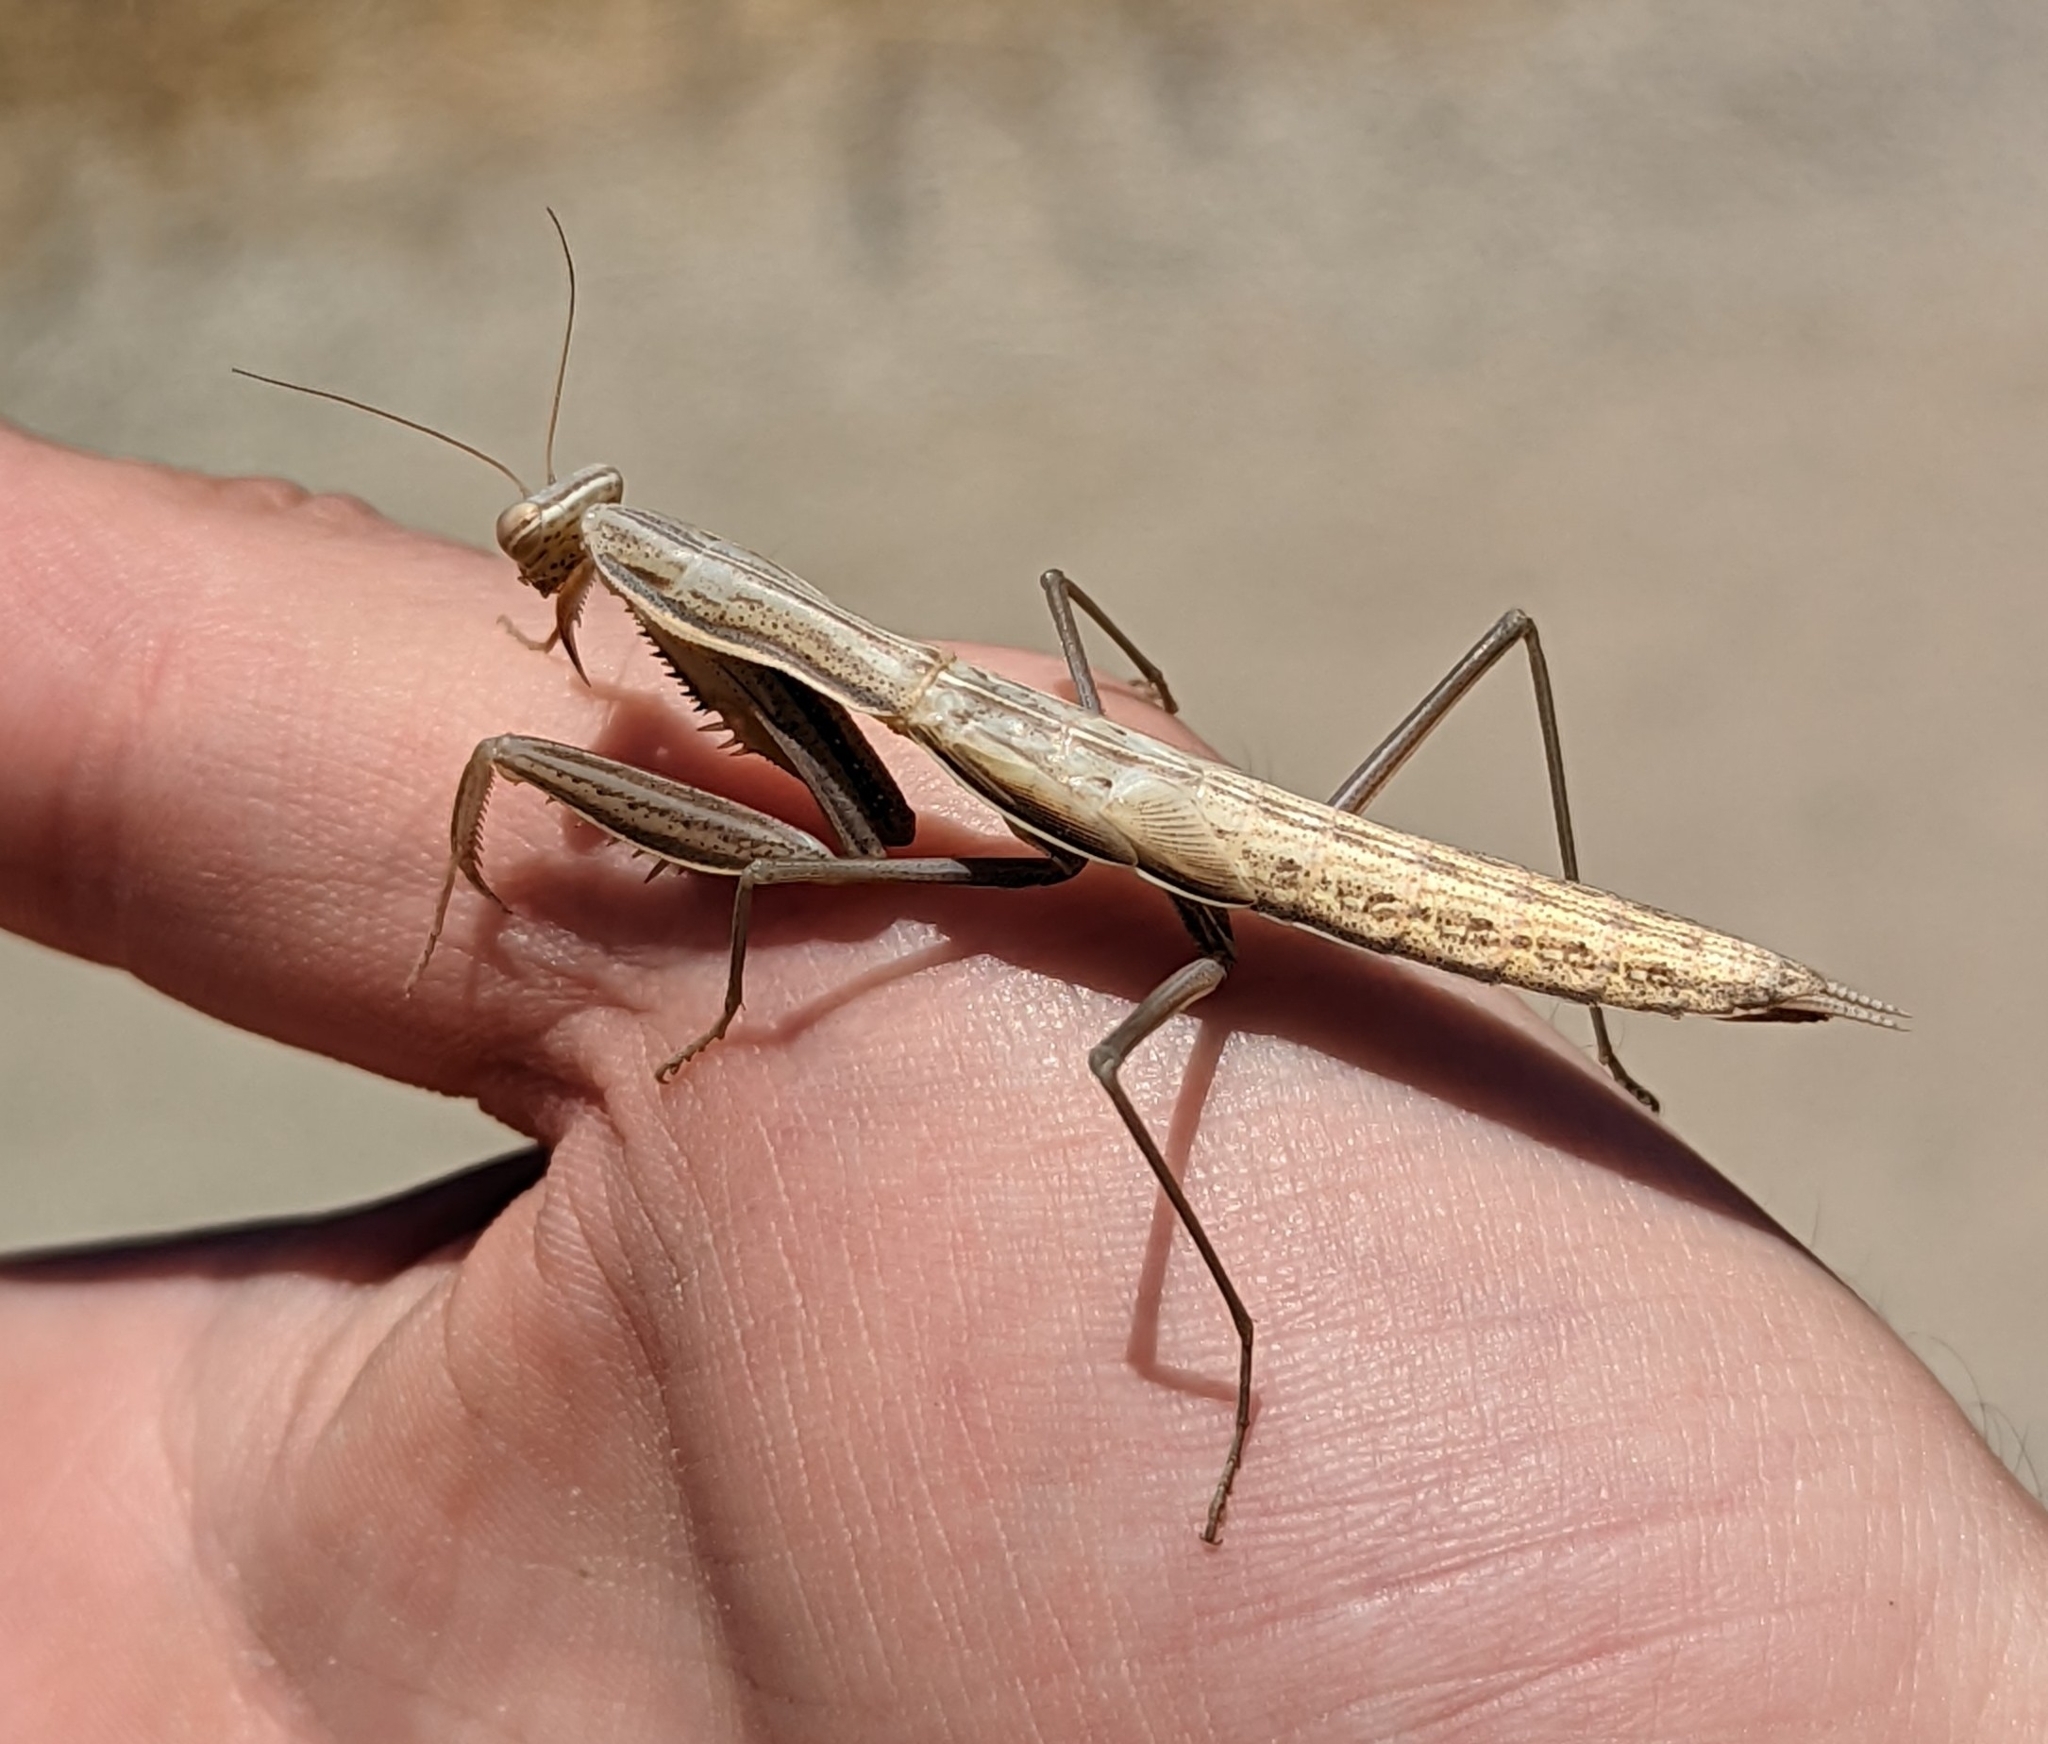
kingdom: Animalia
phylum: Arthropoda
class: Insecta
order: Mantodea
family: Mantidae
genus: Mantis
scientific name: Mantis religiosa
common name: Praying mantis
